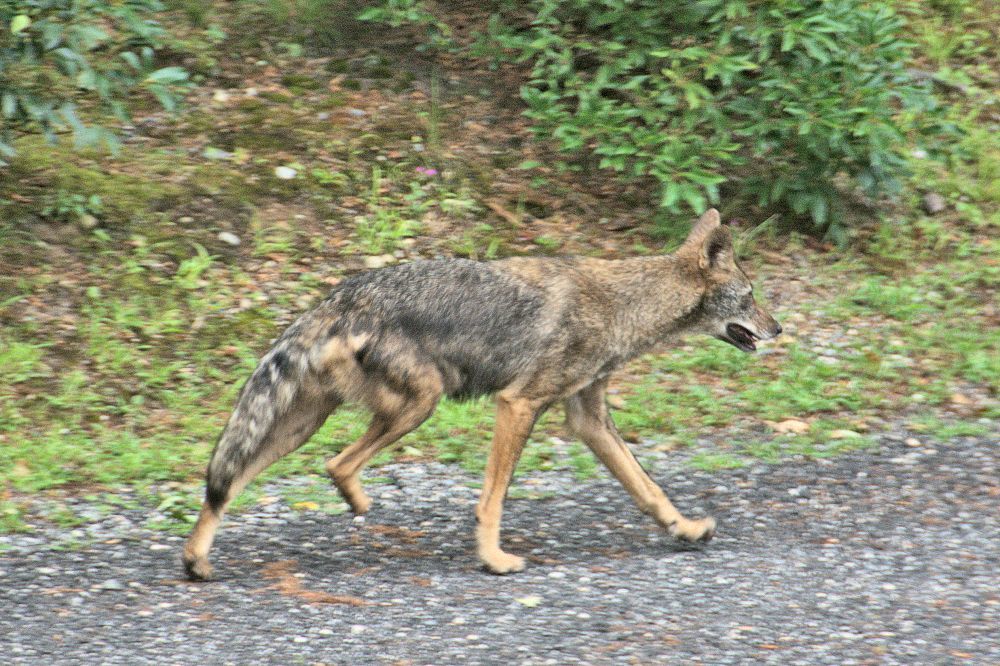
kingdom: Animalia
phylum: Chordata
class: Mammalia
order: Carnivora
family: Canidae
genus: Canis
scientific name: Canis latrans
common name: Coyote
